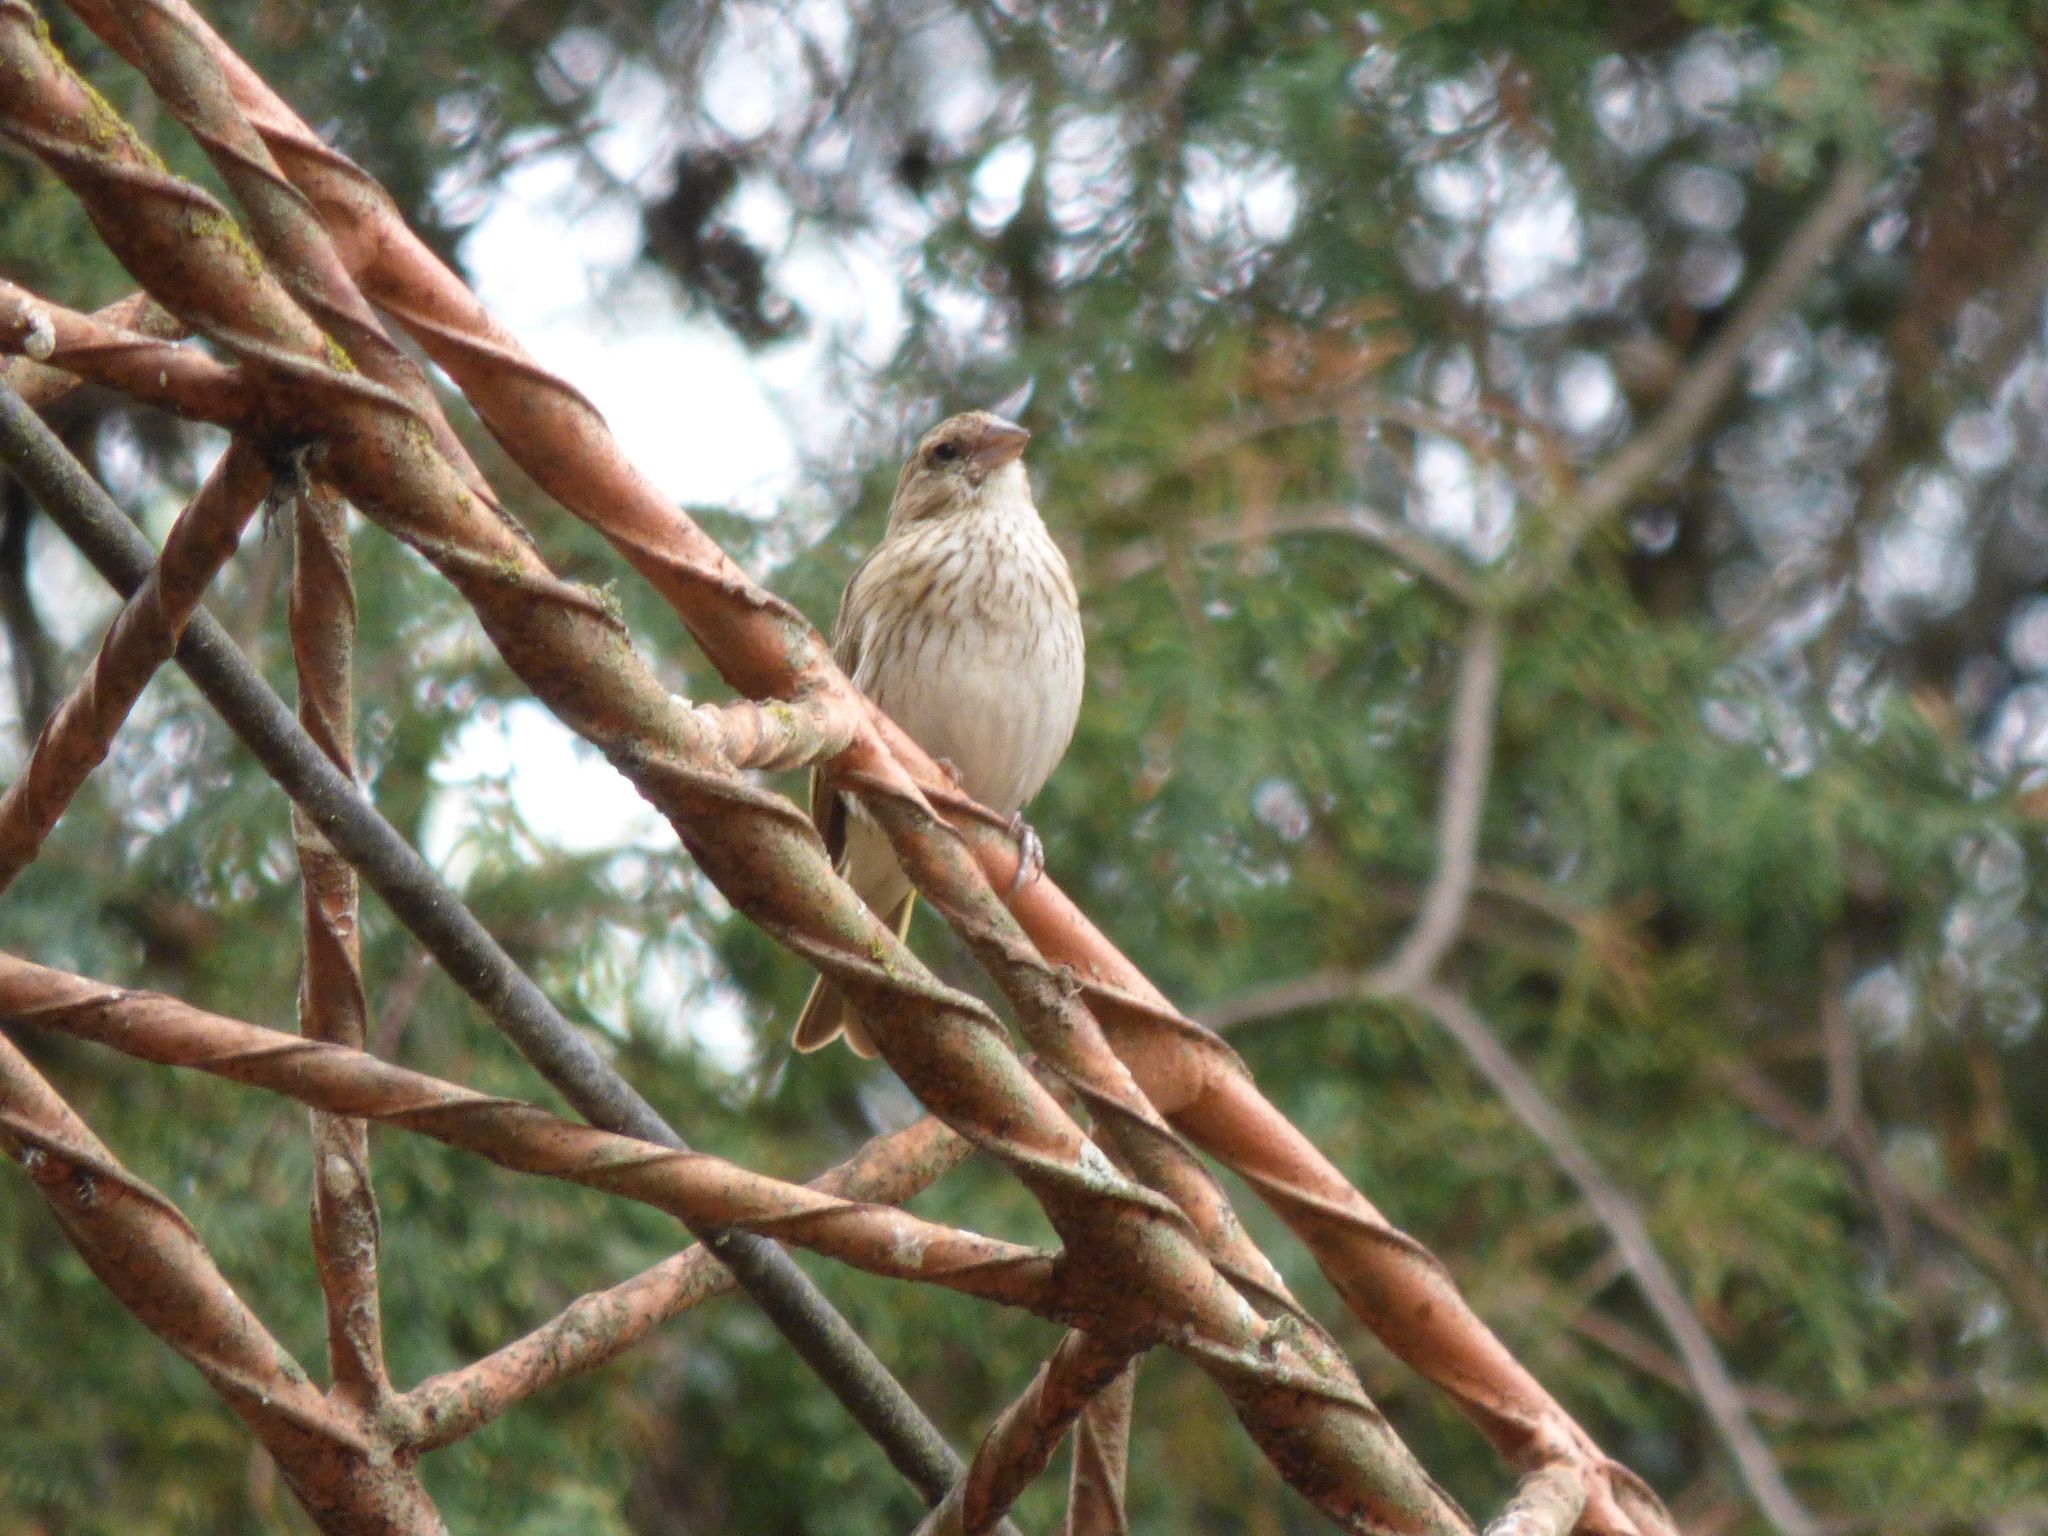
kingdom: Animalia
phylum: Chordata
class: Aves
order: Passeriformes
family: Thraupidae
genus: Sicalis
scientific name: Sicalis flaveola
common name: Saffron finch
